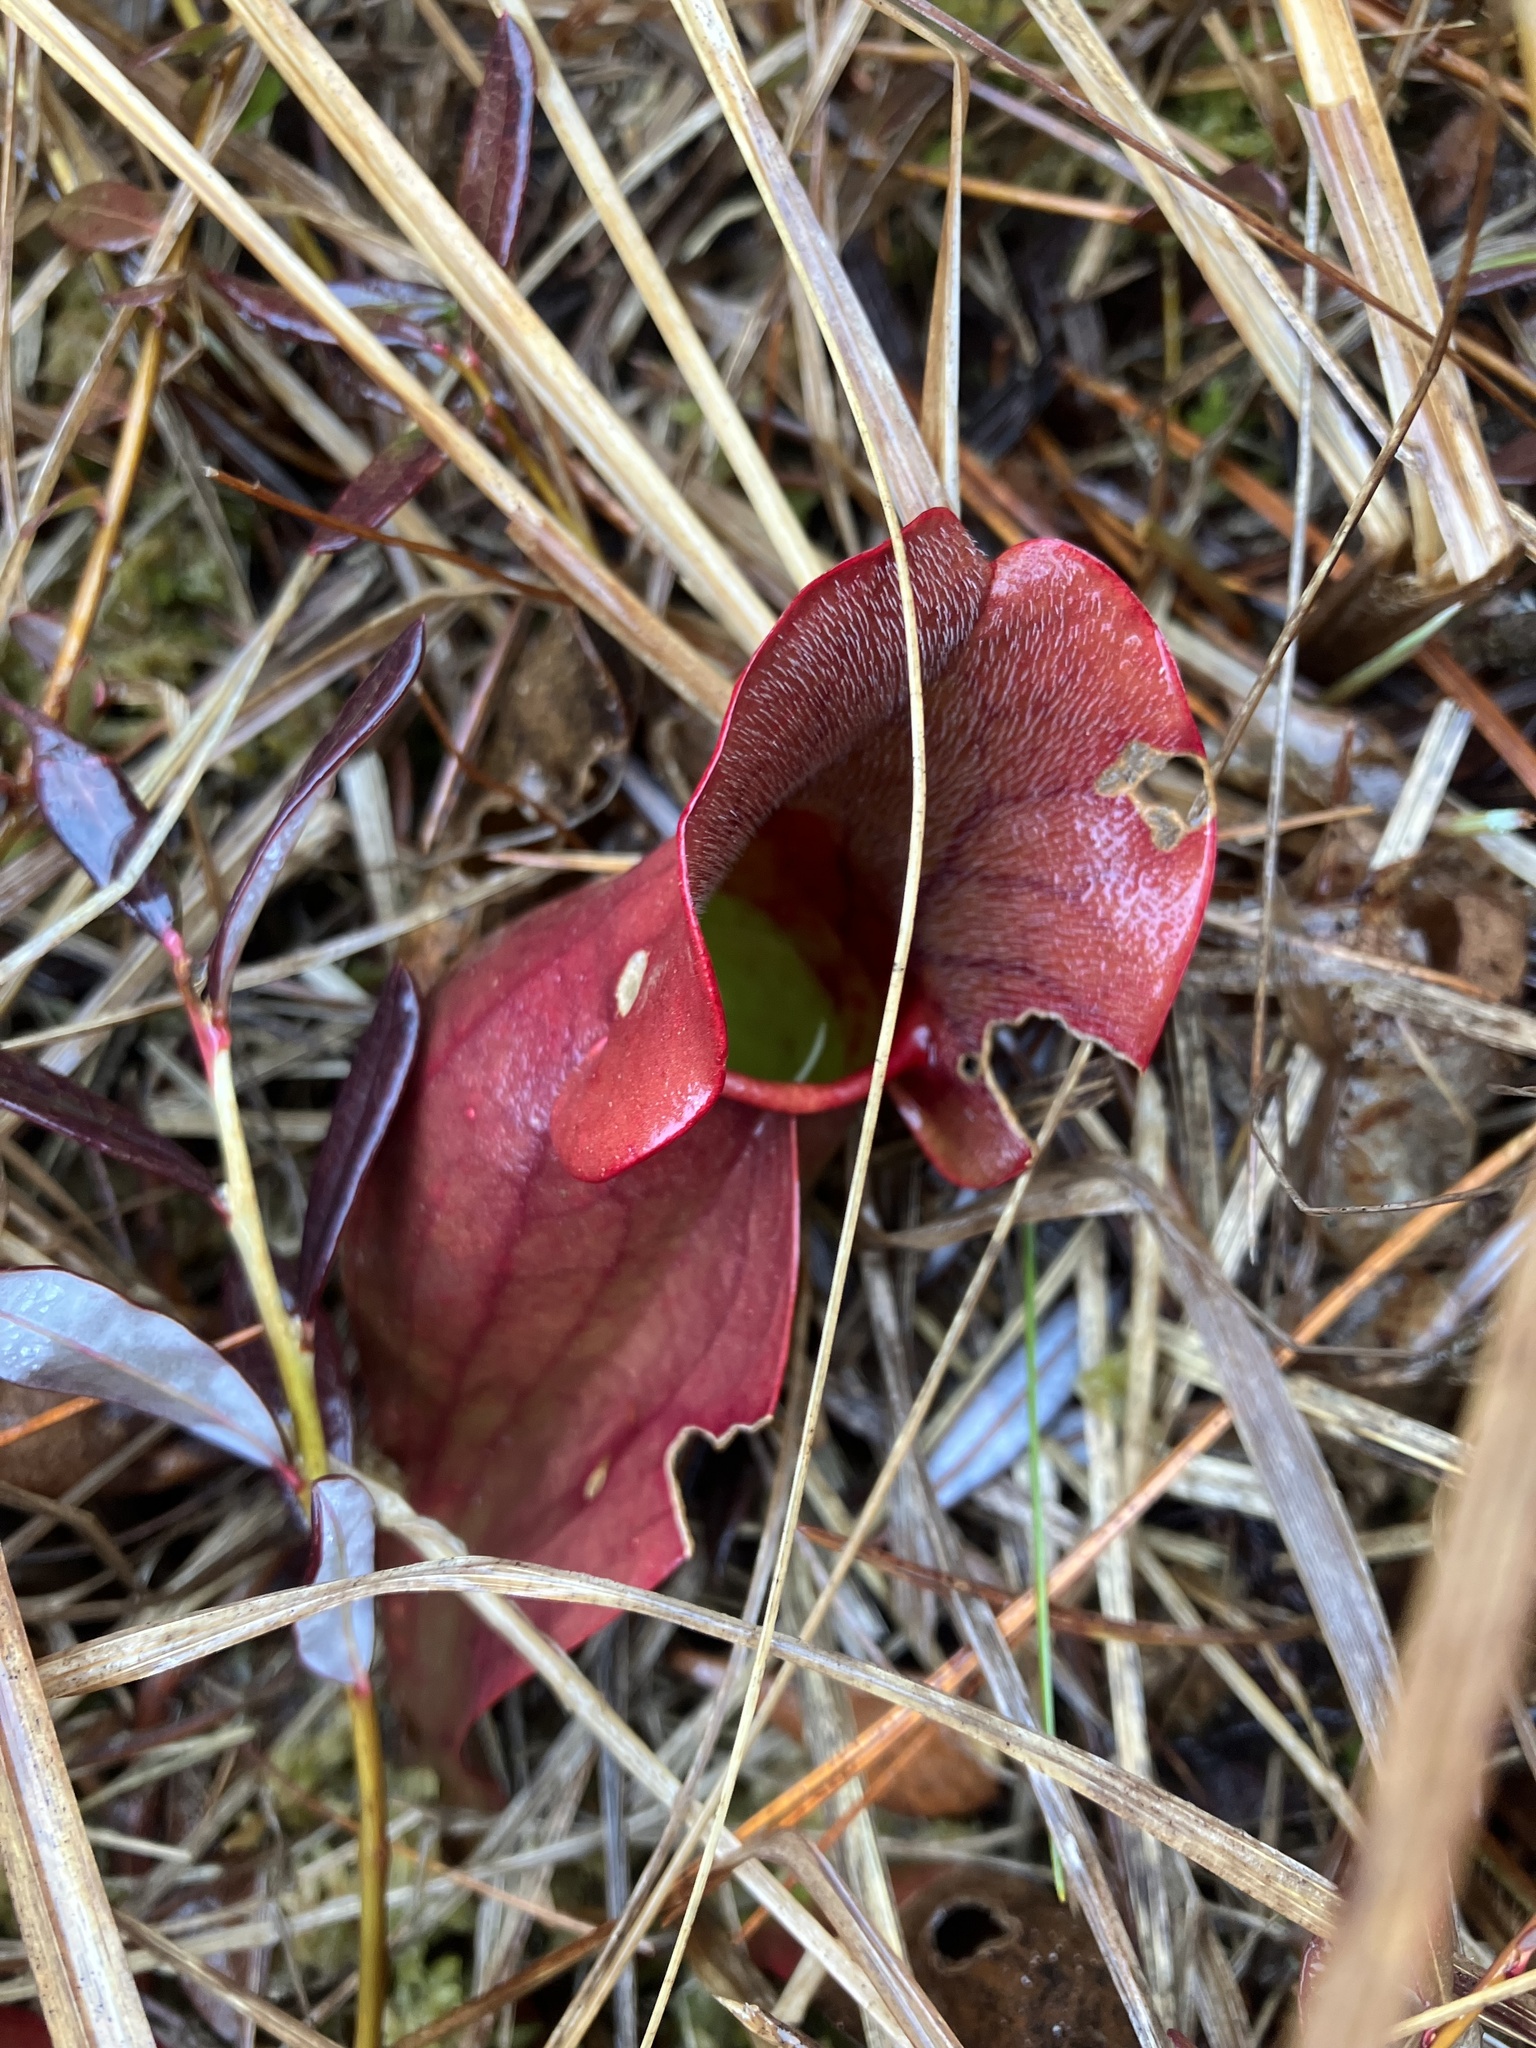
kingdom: Plantae
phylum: Tracheophyta
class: Magnoliopsida
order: Ericales
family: Sarraceniaceae
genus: Sarracenia
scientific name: Sarracenia purpurea
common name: Pitcherplant
